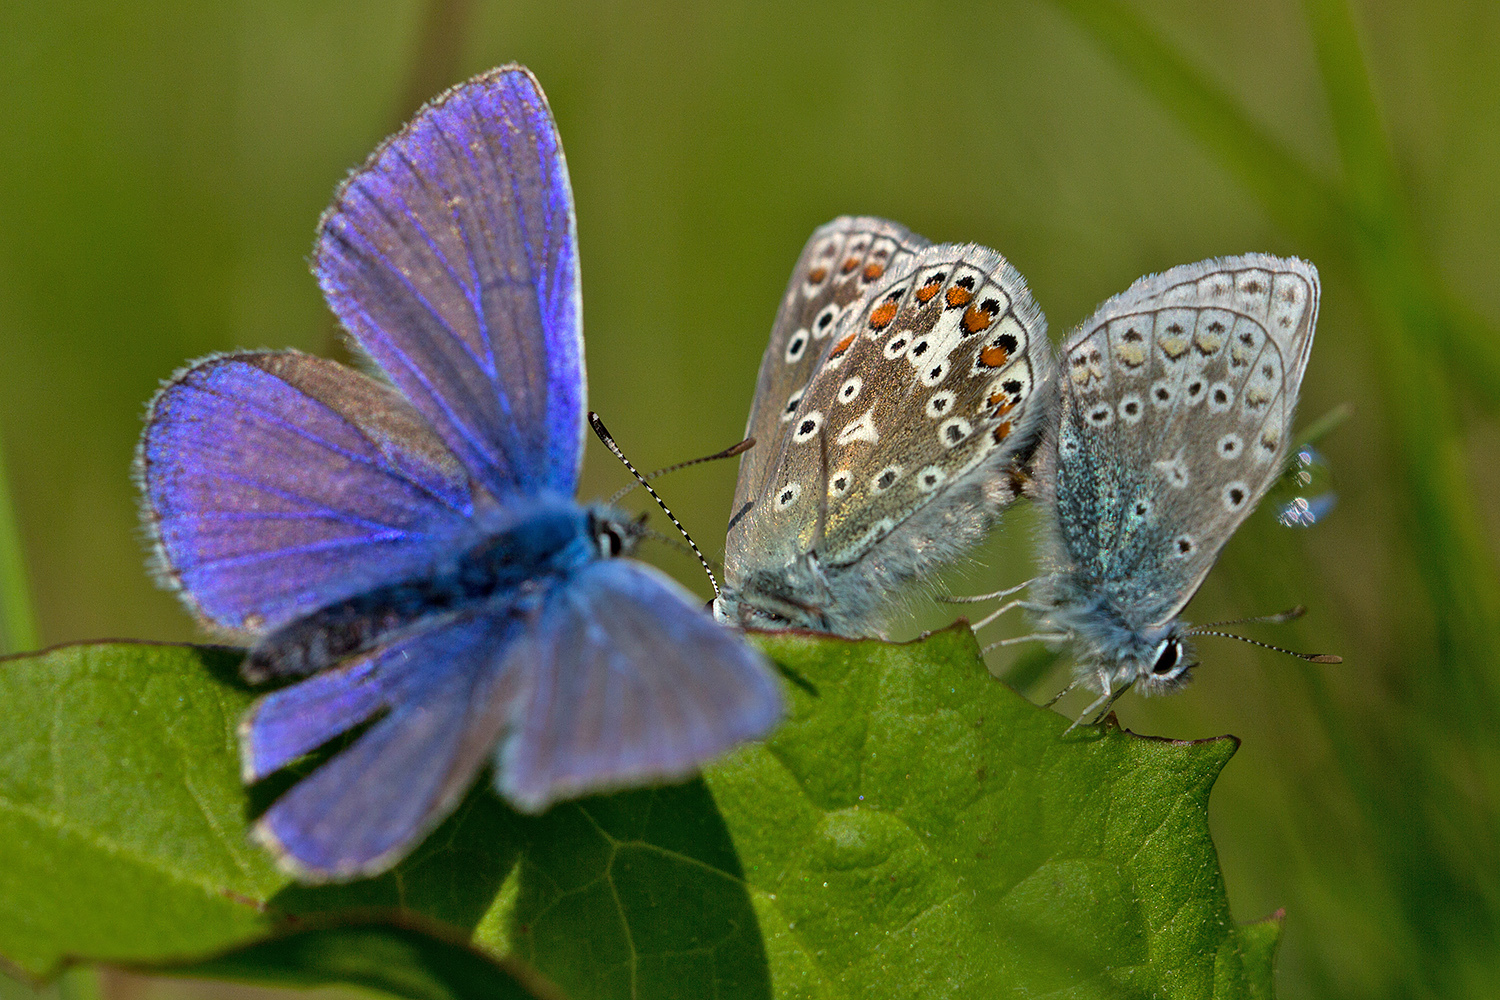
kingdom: Animalia
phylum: Arthropoda
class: Insecta
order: Lepidoptera
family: Lycaenidae
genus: Polyommatus
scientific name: Polyommatus icarus
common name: Common blue
